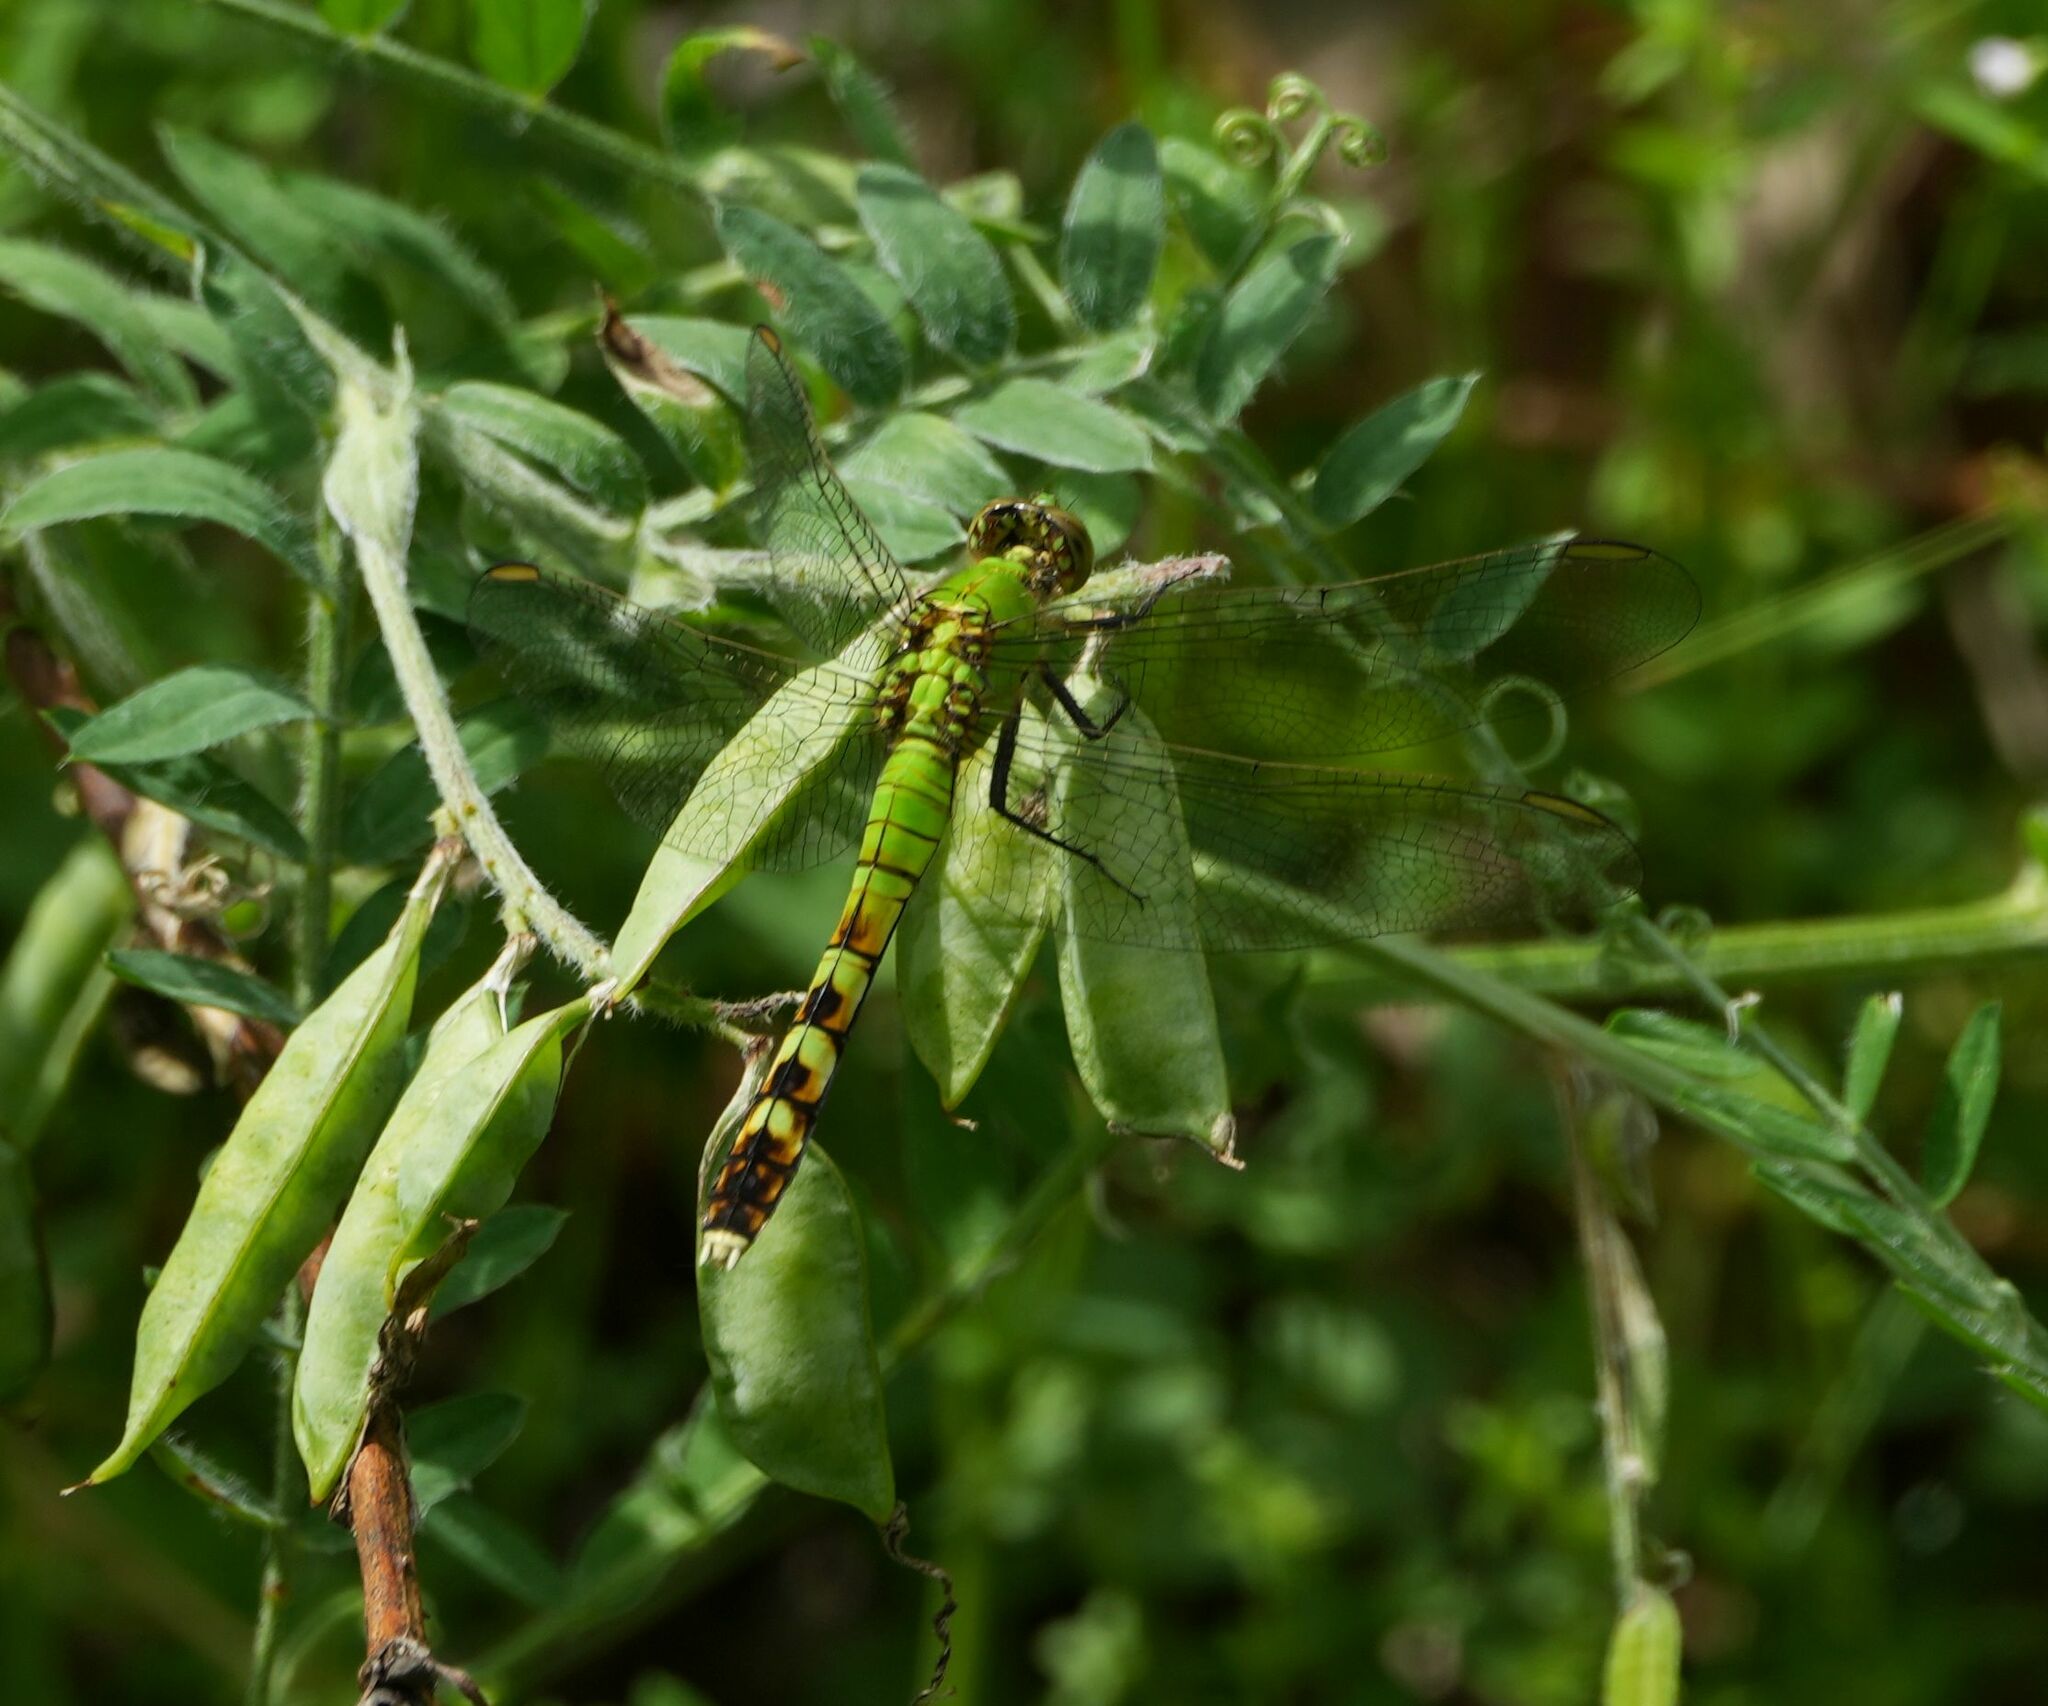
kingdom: Animalia
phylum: Arthropoda
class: Insecta
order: Odonata
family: Libellulidae
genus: Erythemis
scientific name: Erythemis simplicicollis
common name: Eastern pondhawk
